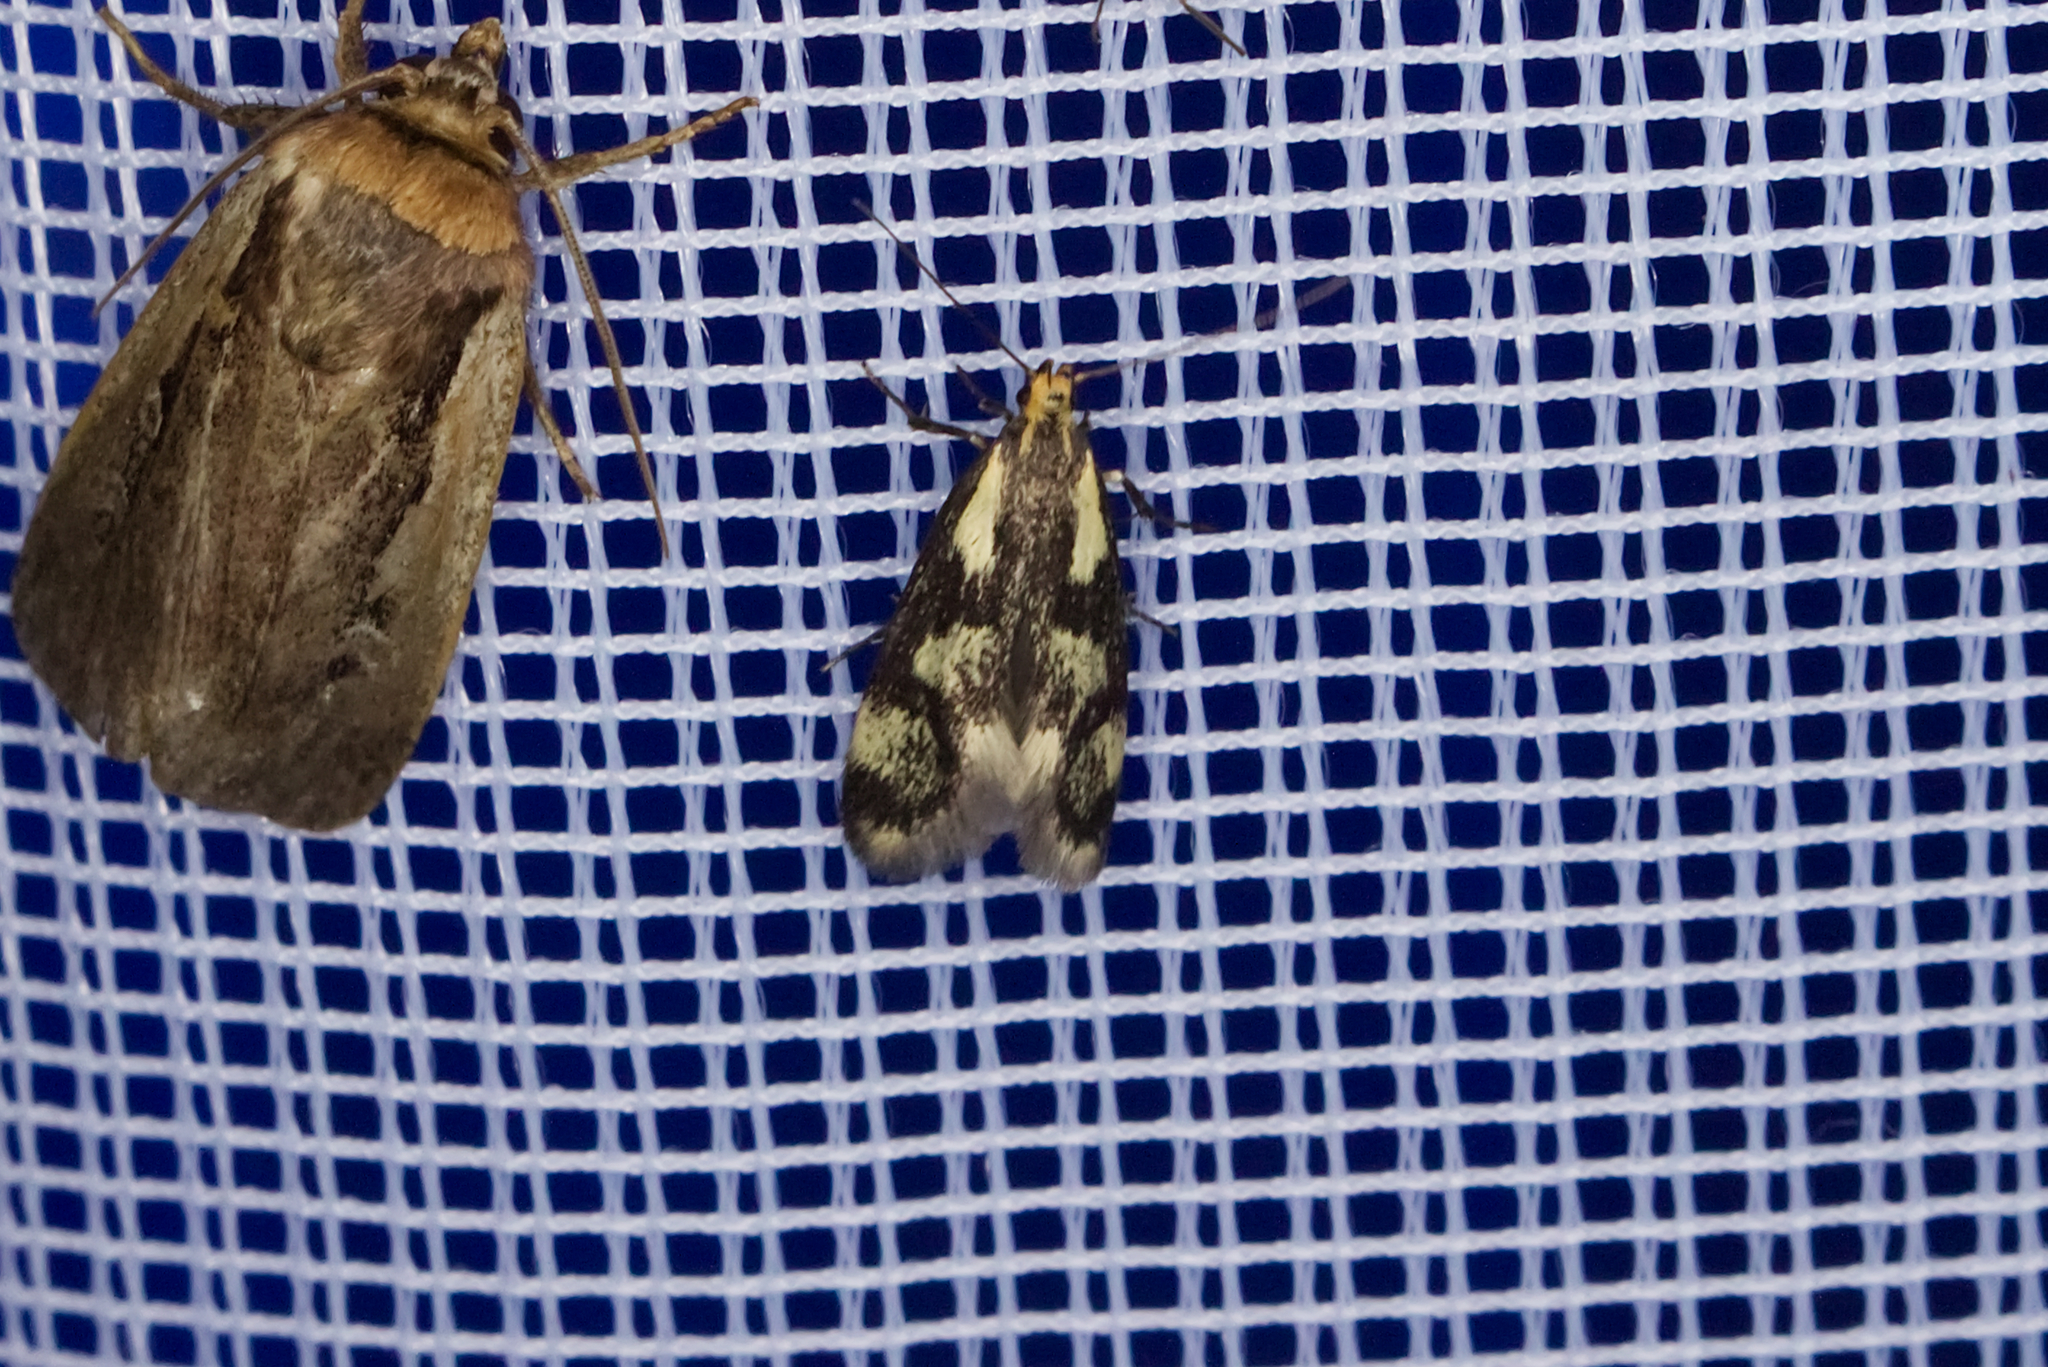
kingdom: Animalia
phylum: Arthropoda
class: Insecta
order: Lepidoptera
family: Oecophoridae
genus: Denisia
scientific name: Denisia stipella
